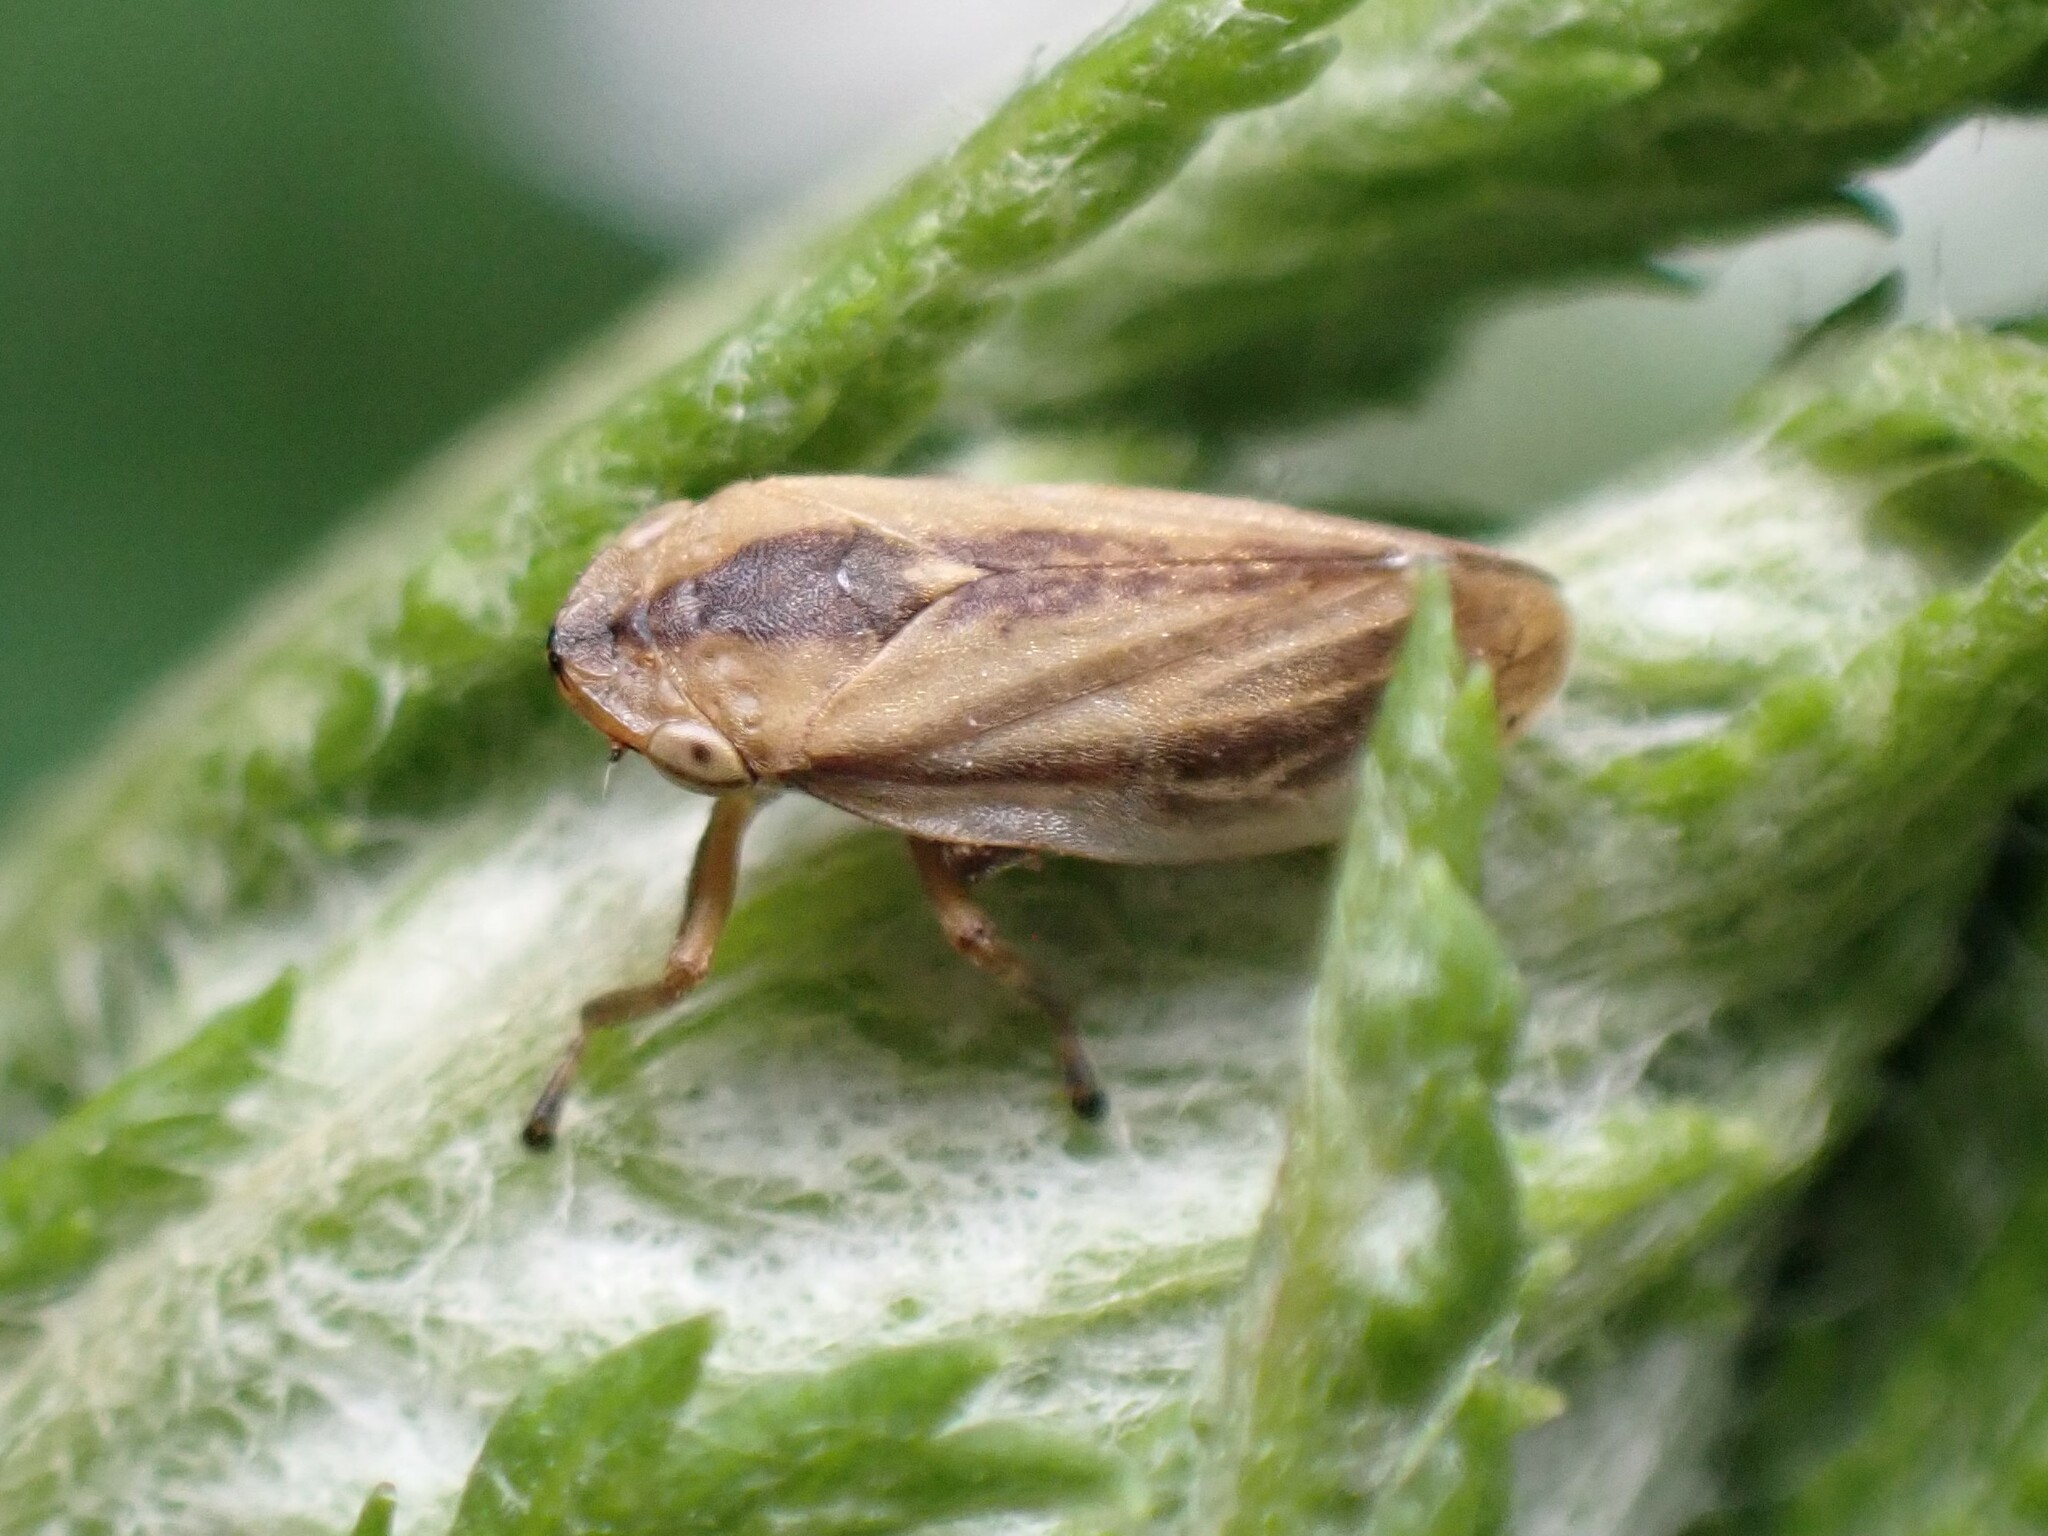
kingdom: Animalia
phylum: Arthropoda
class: Insecta
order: Hemiptera
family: Aphrophoridae
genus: Philaenus
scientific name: Philaenus spumarius
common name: Meadow spittlebug
